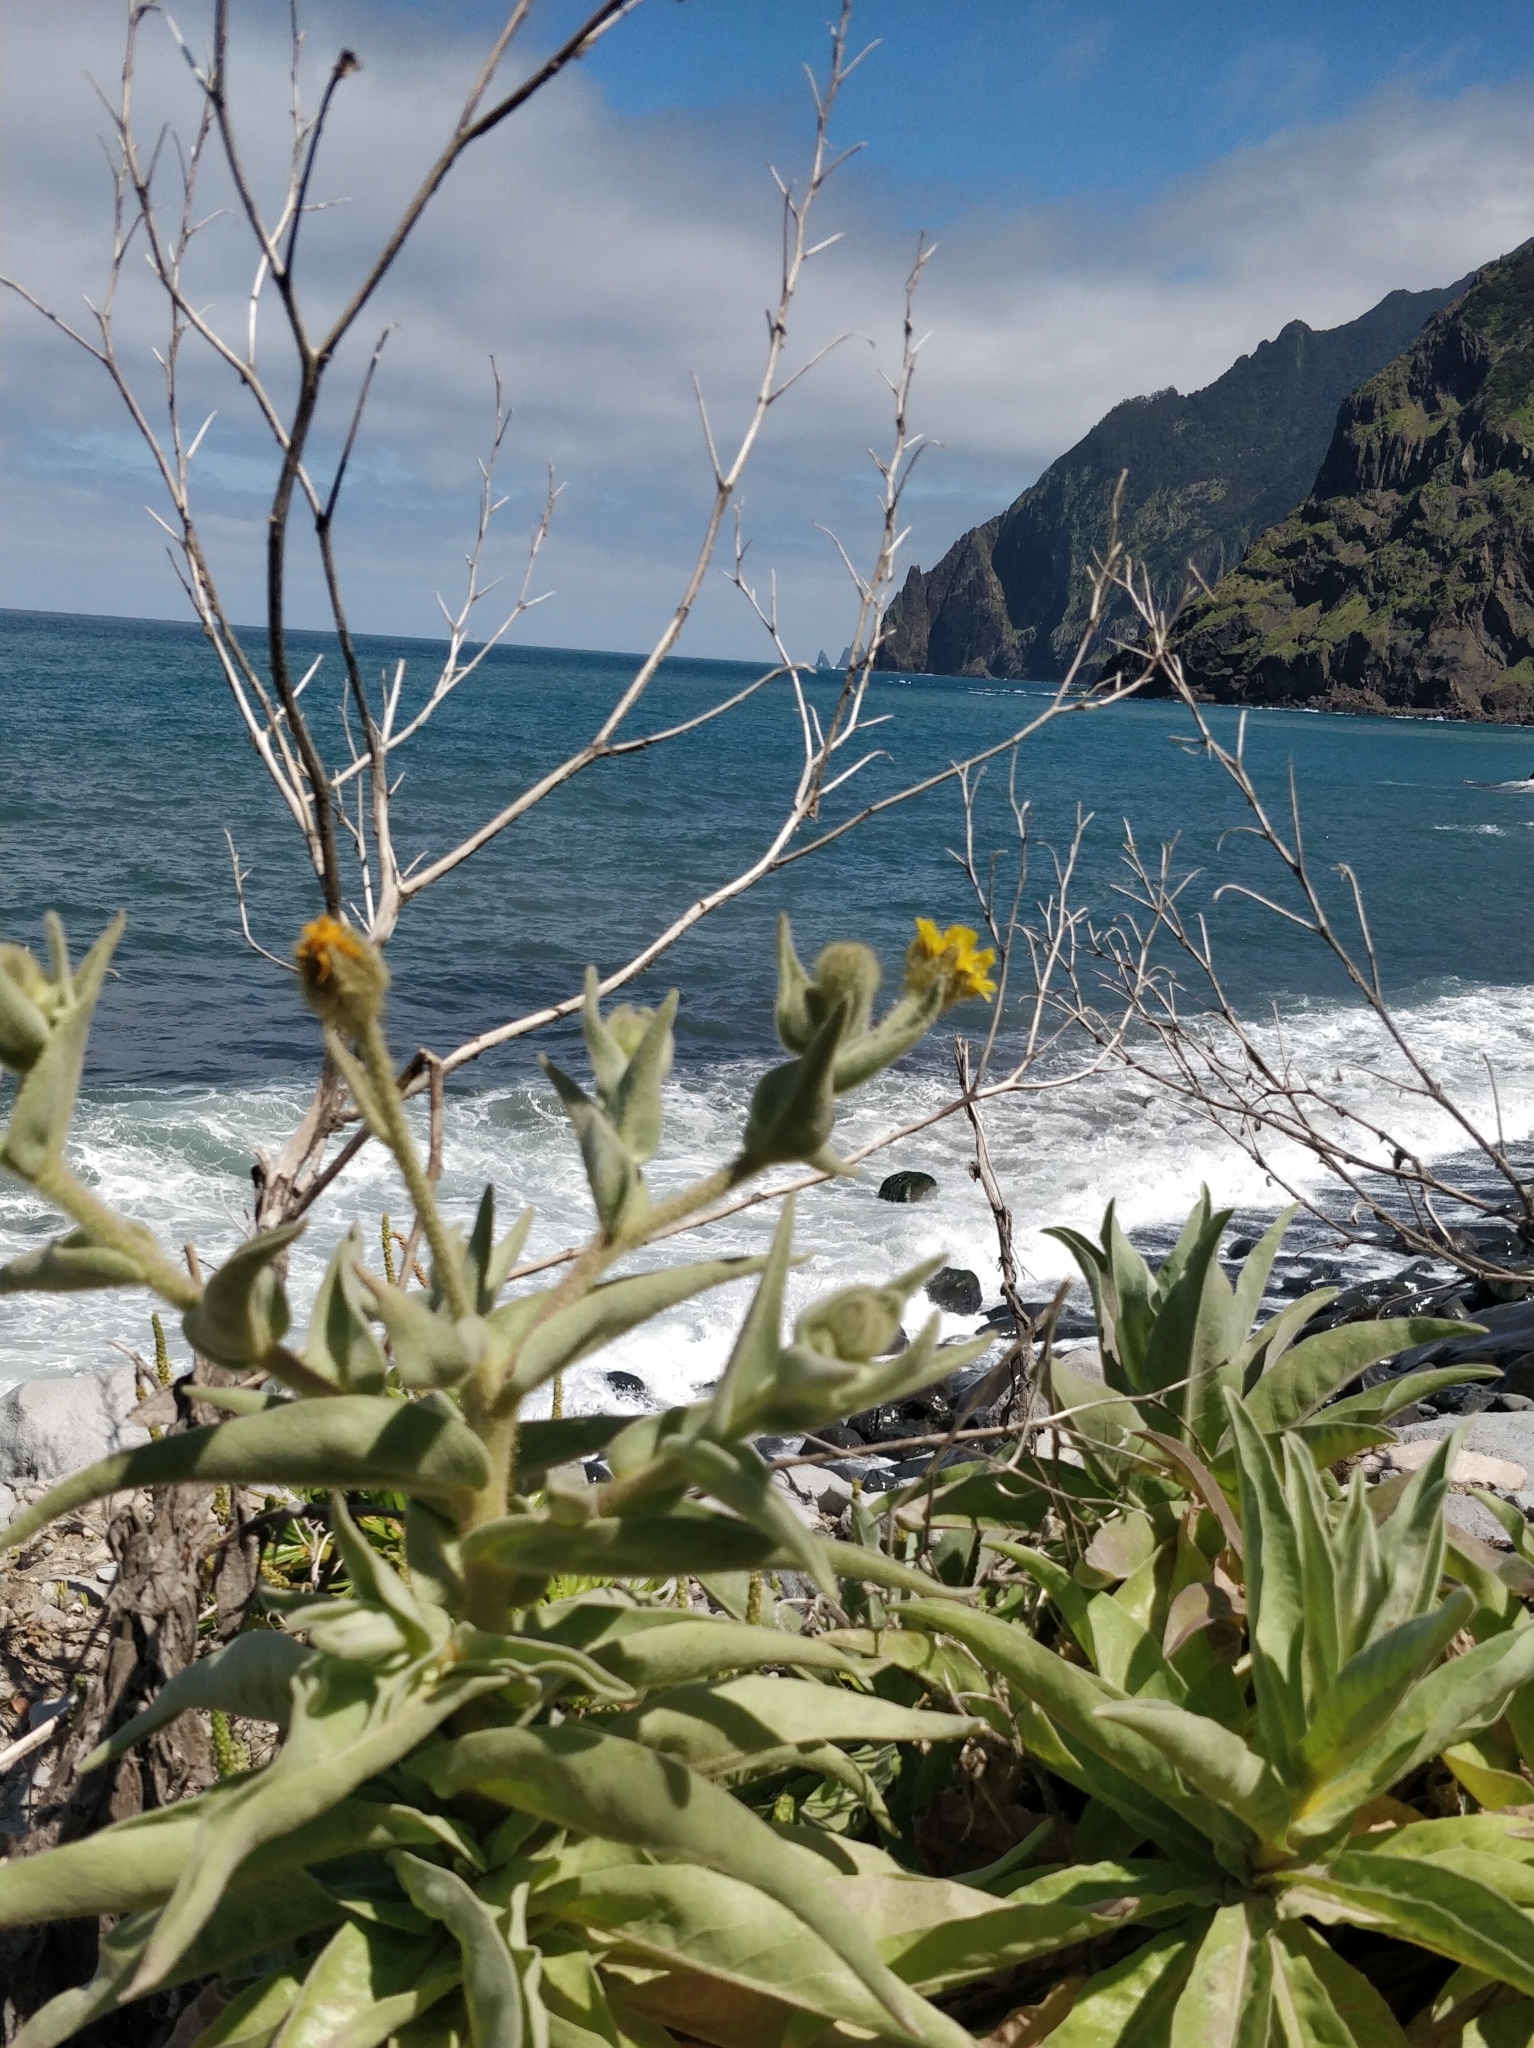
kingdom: Plantae
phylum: Tracheophyta
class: Magnoliopsida
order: Asterales
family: Asteraceae
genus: Andryala
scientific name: Andryala glandulosa
